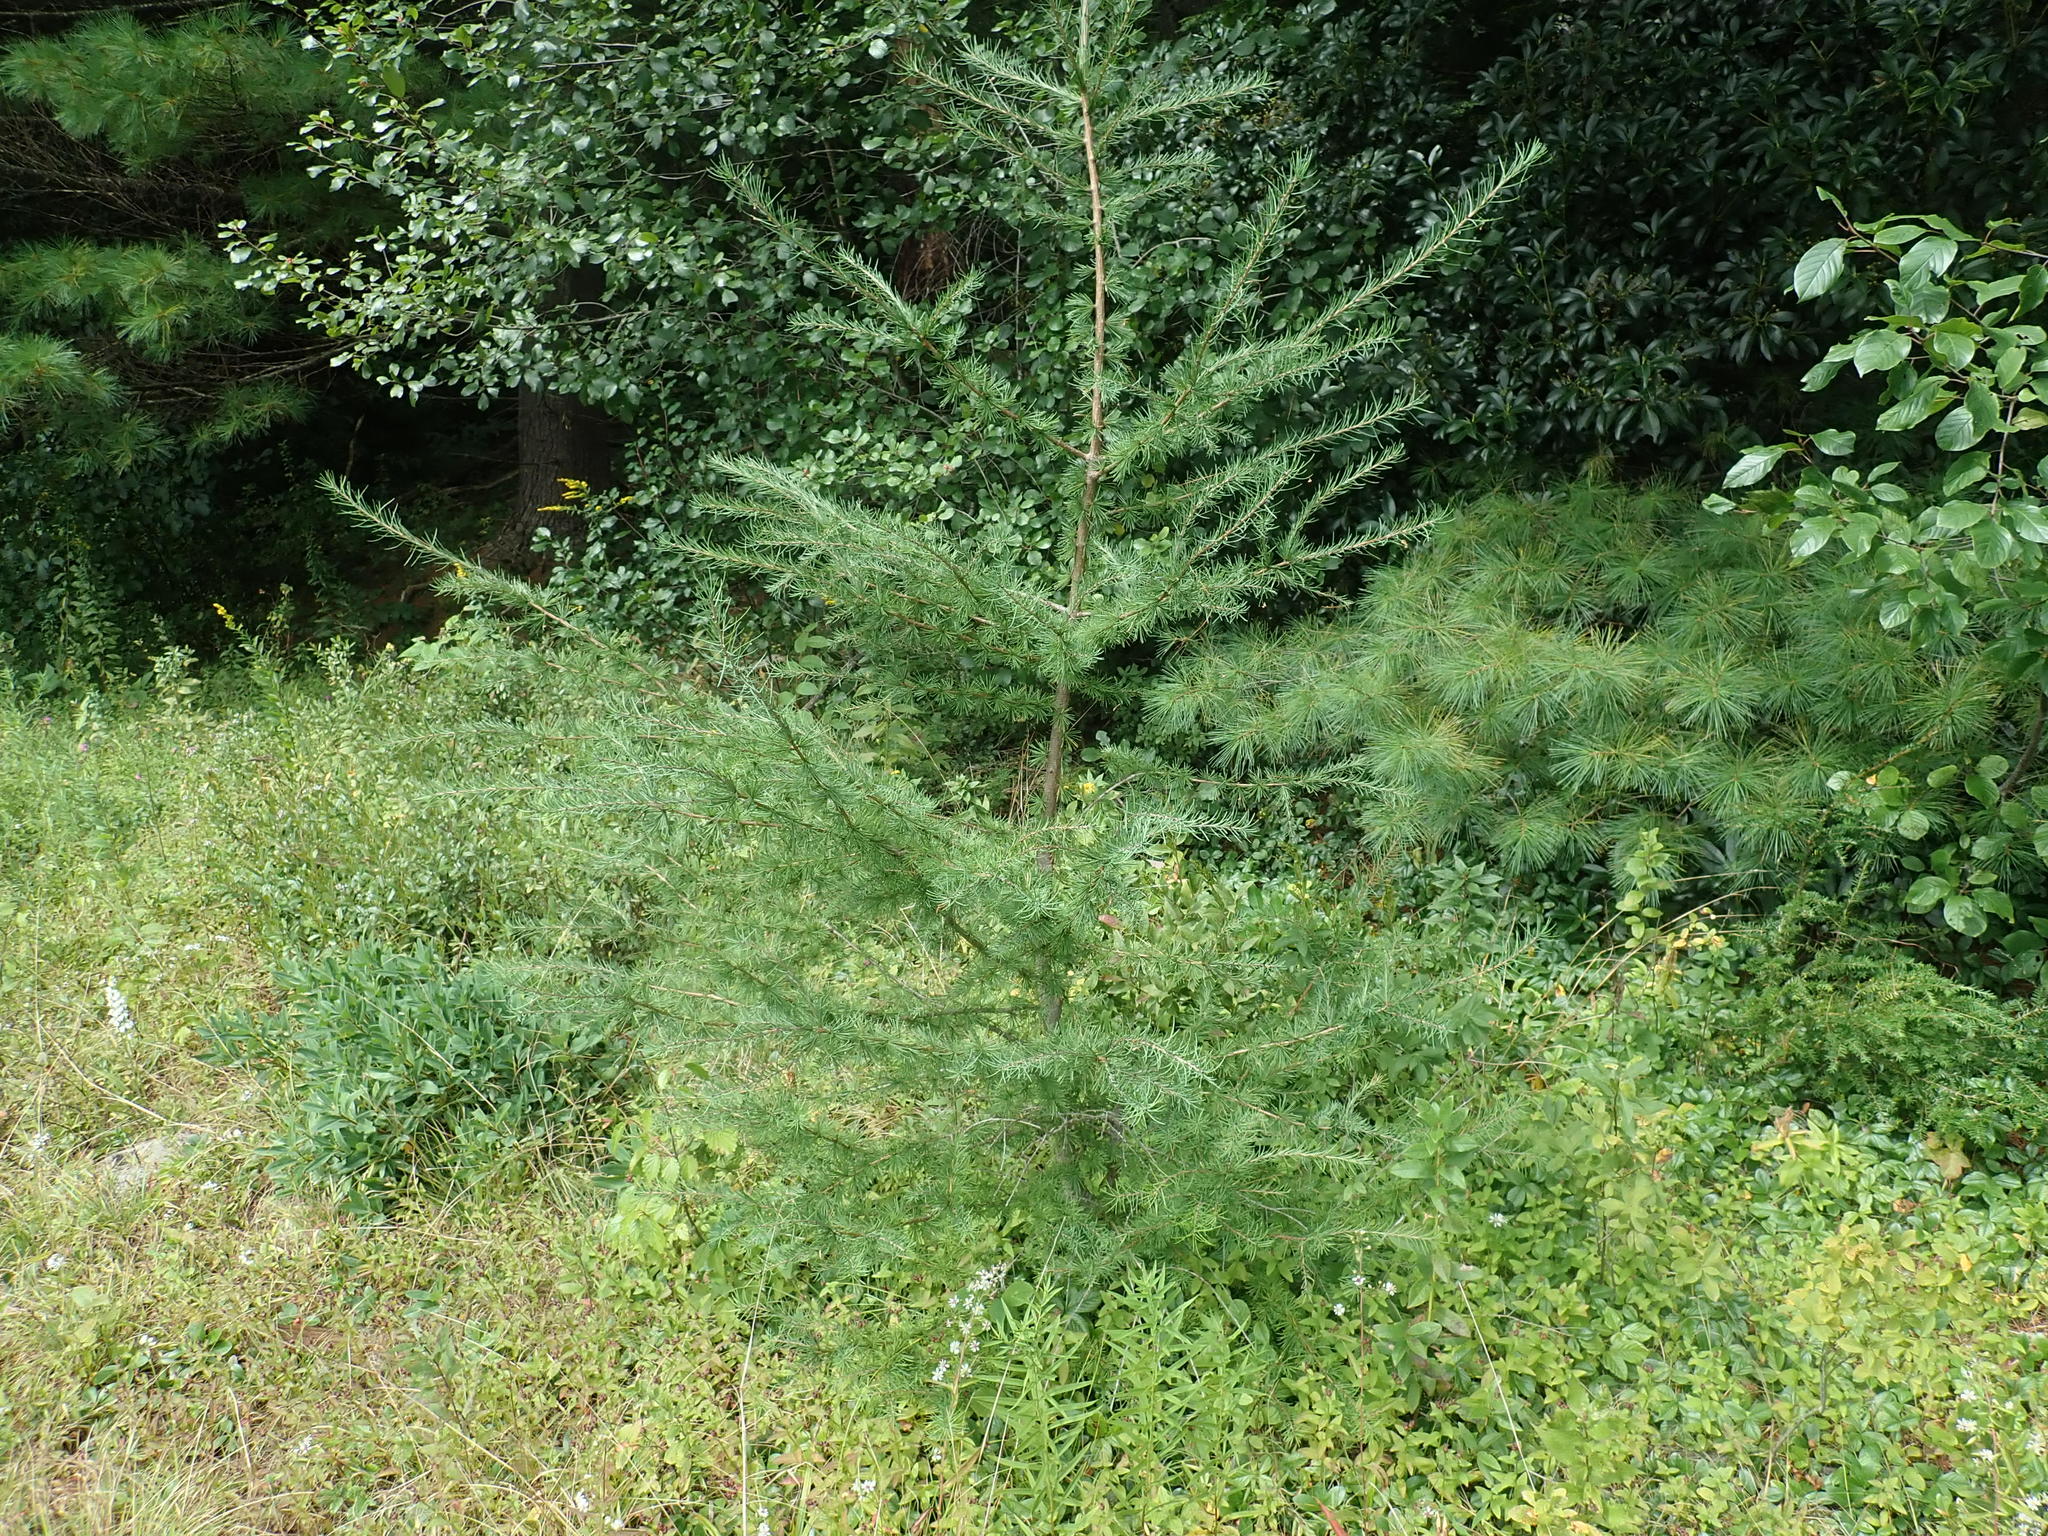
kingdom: Plantae
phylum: Tracheophyta
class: Pinopsida
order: Pinales
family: Pinaceae
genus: Larix
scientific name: Larix laricina
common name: American larch
